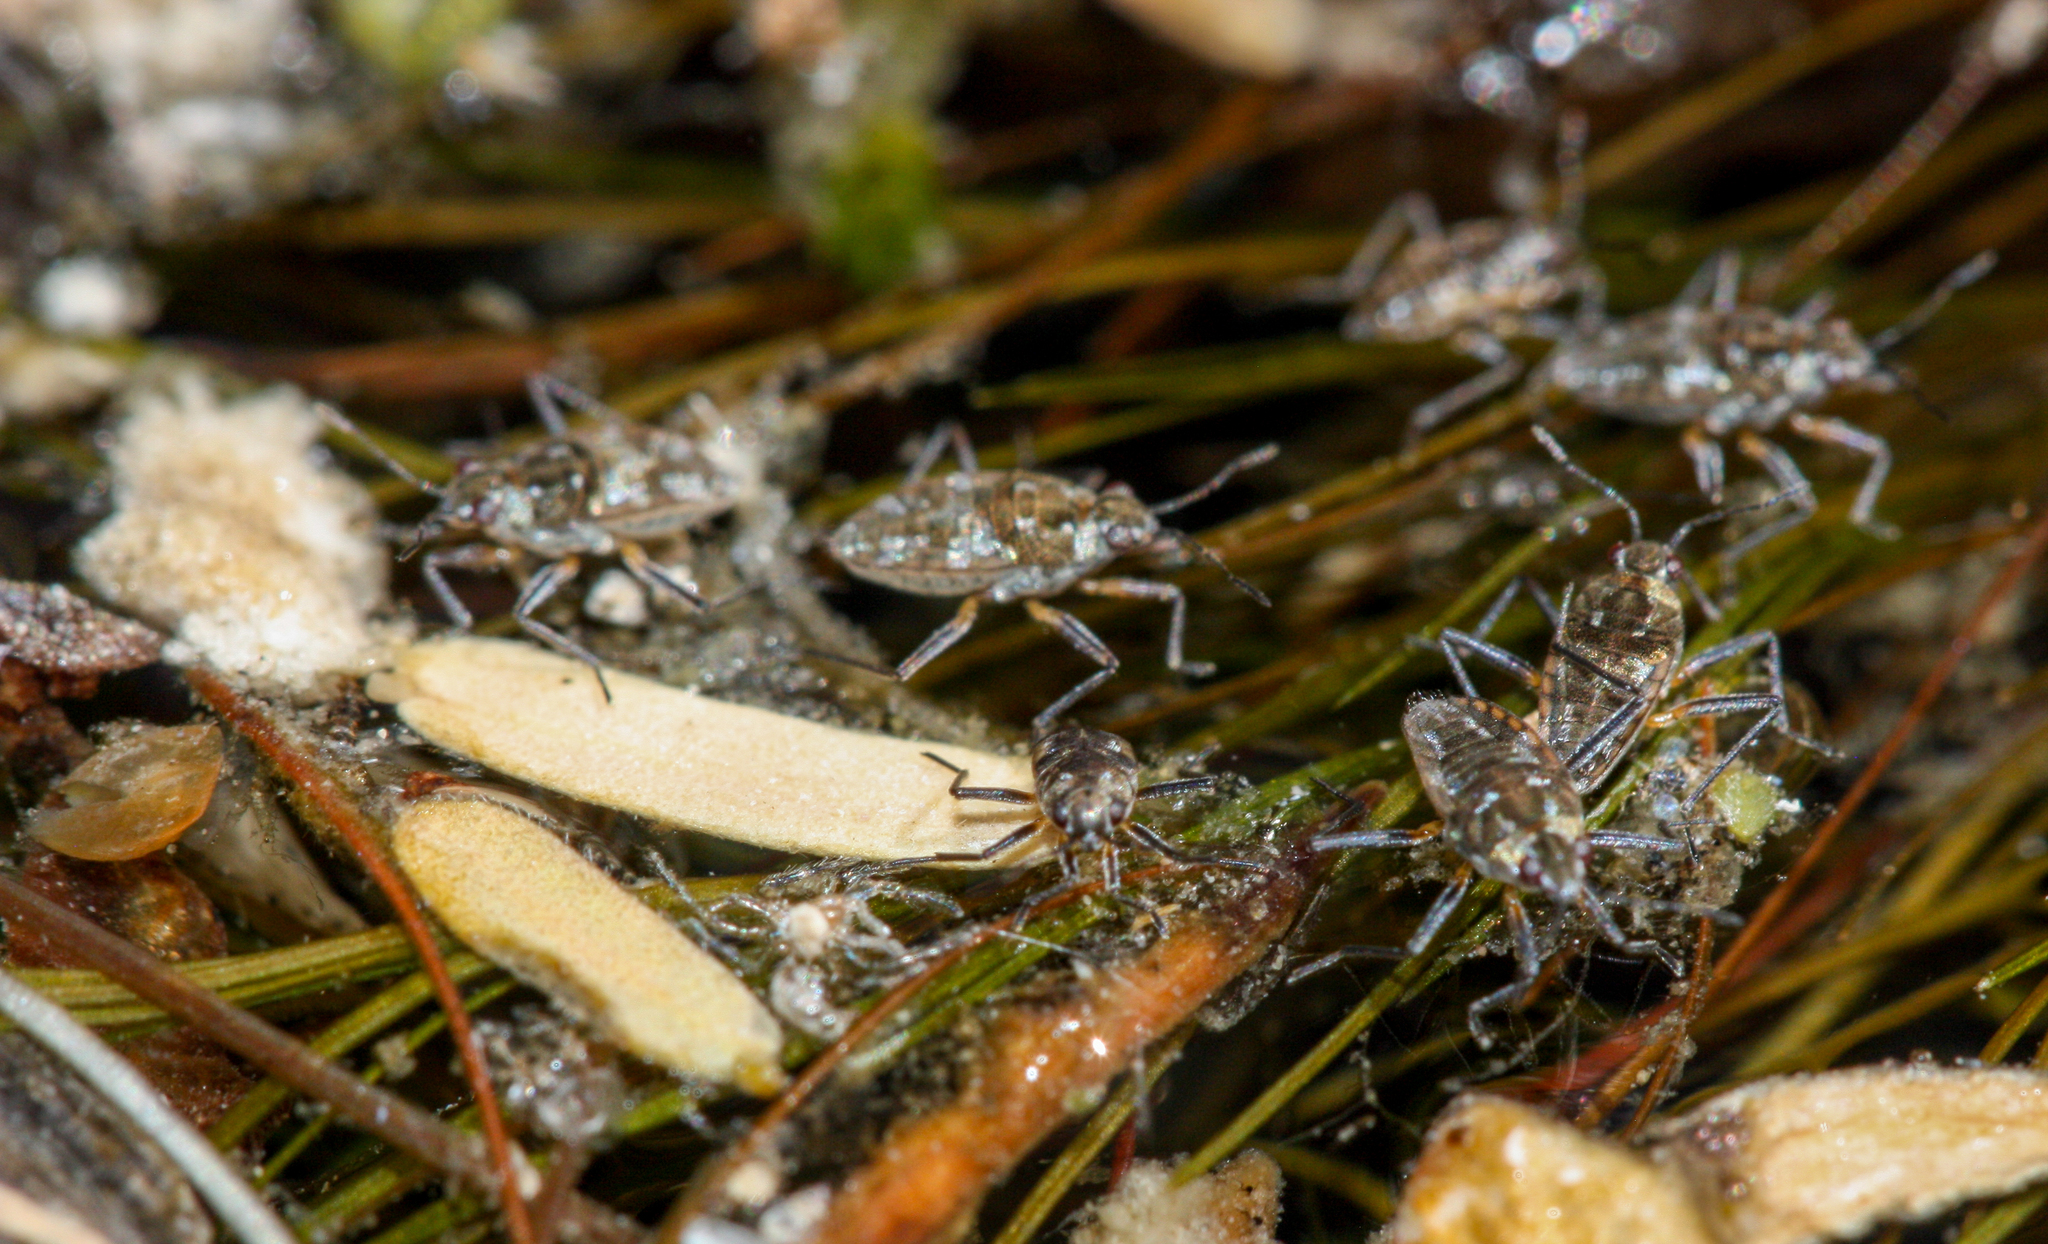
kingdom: Animalia
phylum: Arthropoda
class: Insecta
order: Hemiptera
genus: Kirkaldya
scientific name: Kirkaldya
